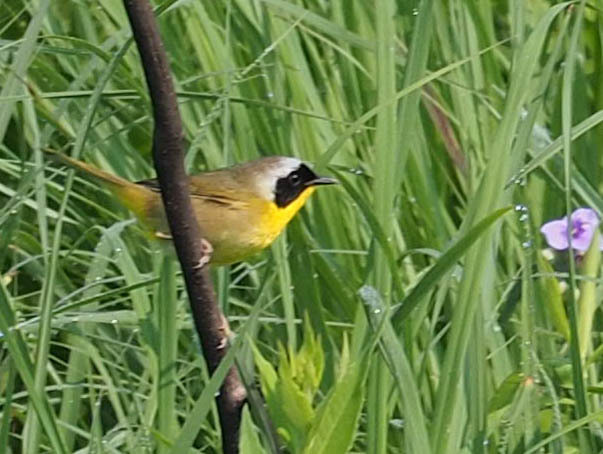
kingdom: Animalia
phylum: Chordata
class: Aves
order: Passeriformes
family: Parulidae
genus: Geothlypis
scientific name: Geothlypis trichas
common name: Common yellowthroat
